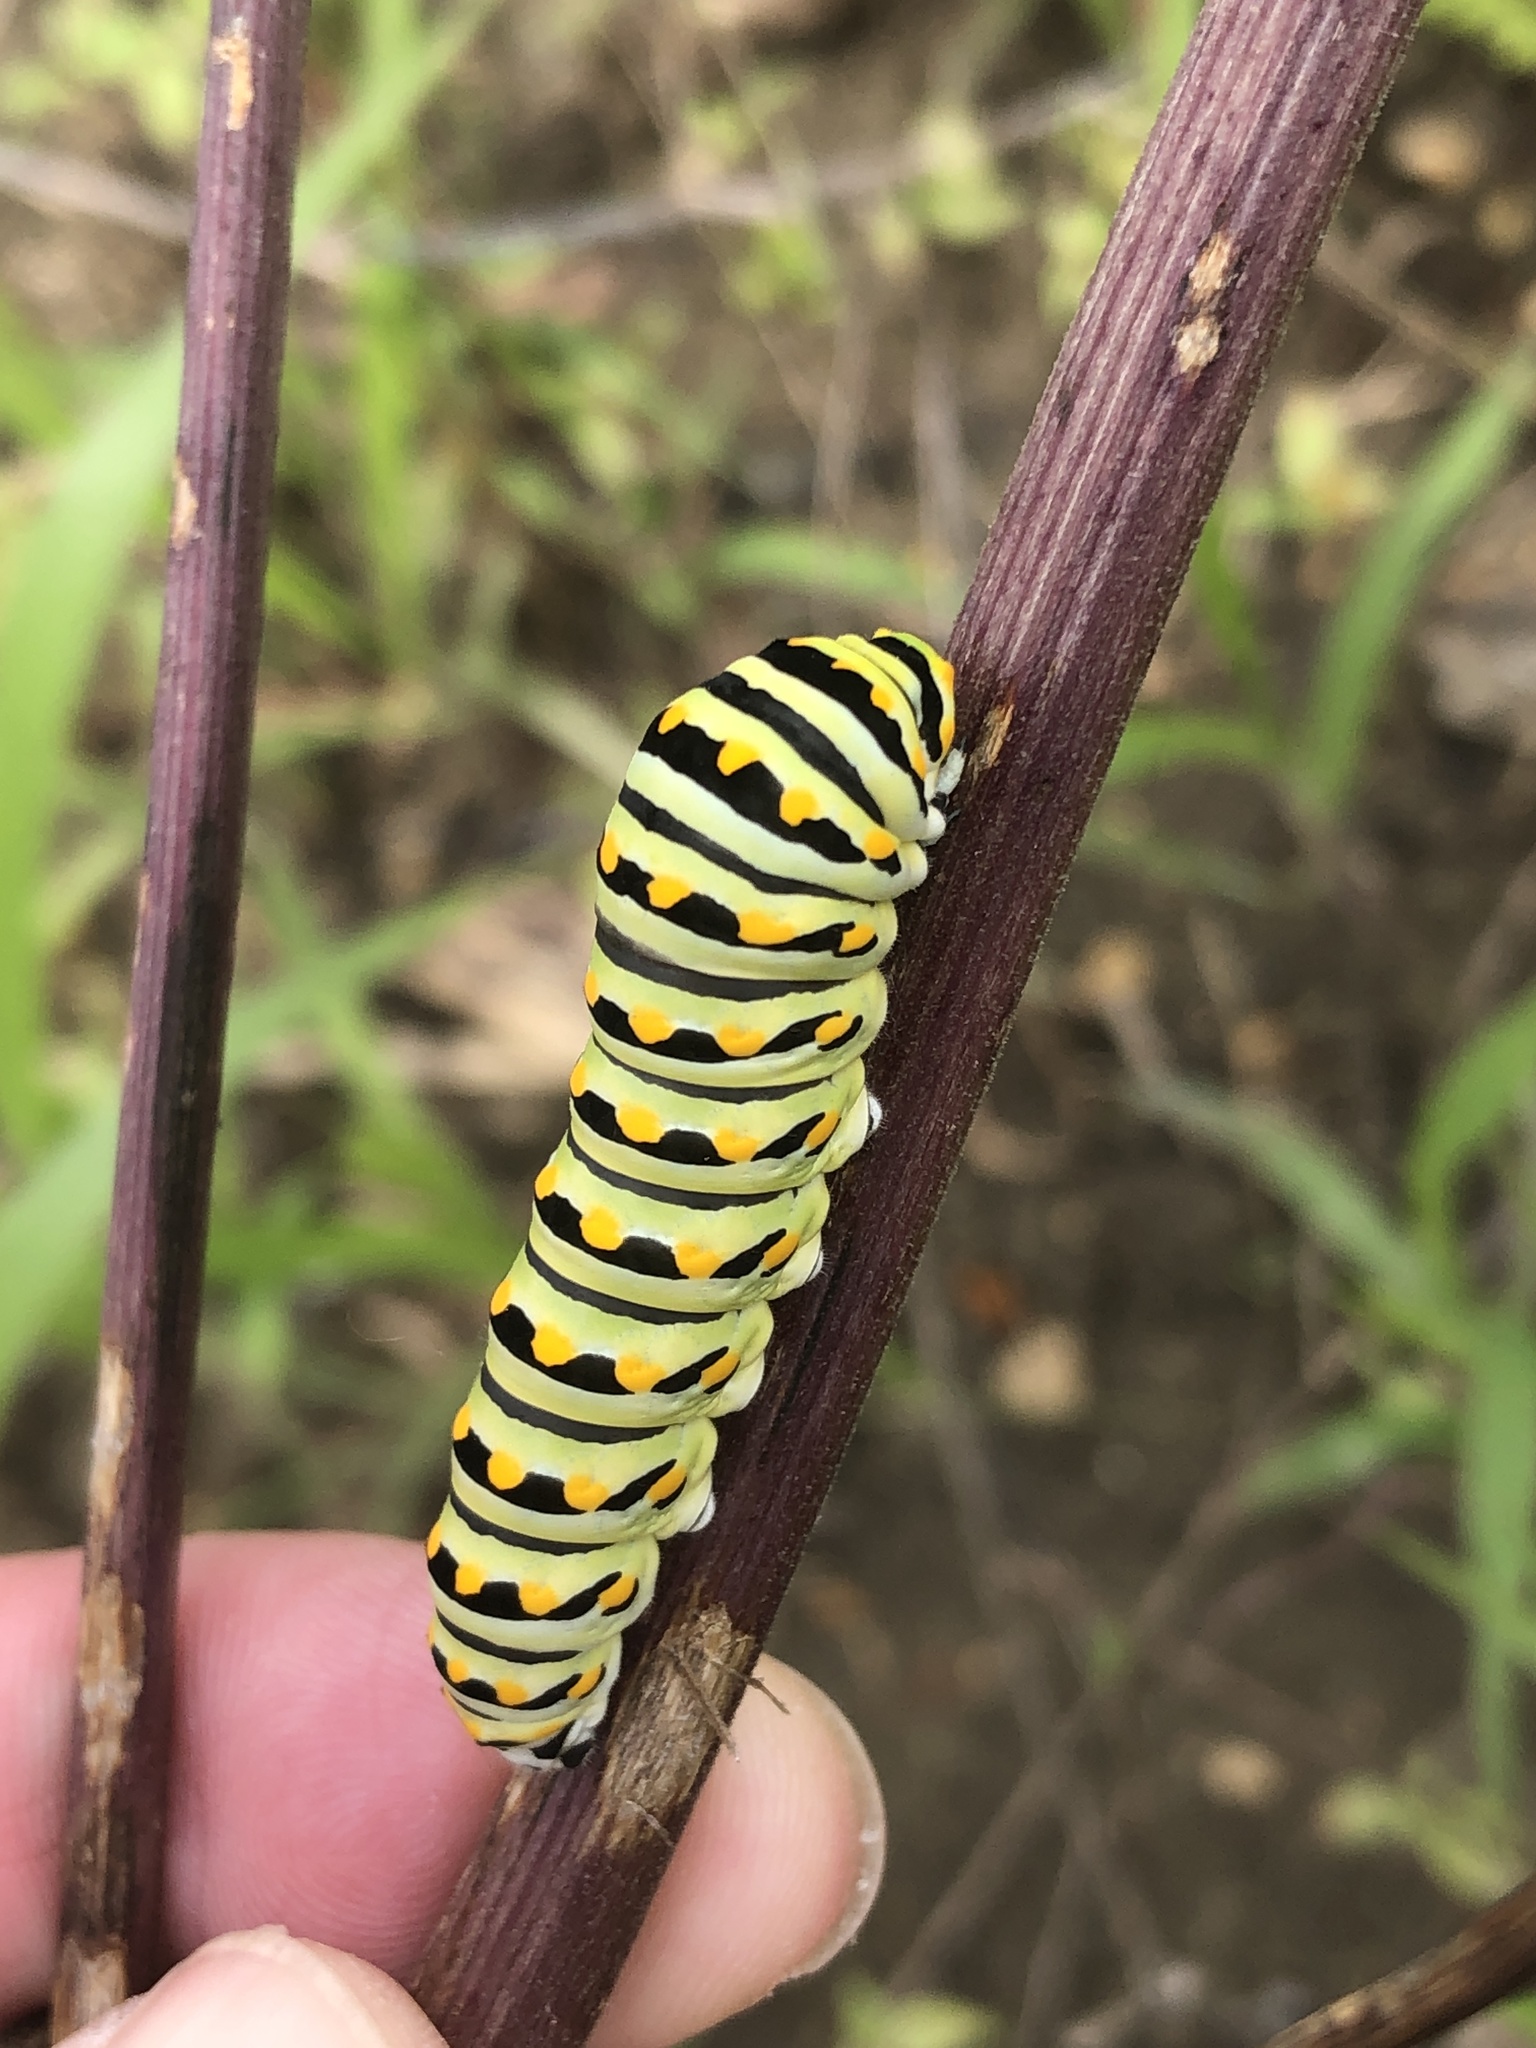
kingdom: Animalia
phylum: Arthropoda
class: Insecta
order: Lepidoptera
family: Papilionidae
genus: Papilio
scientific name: Papilio polyxenes
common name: Black swallowtail
